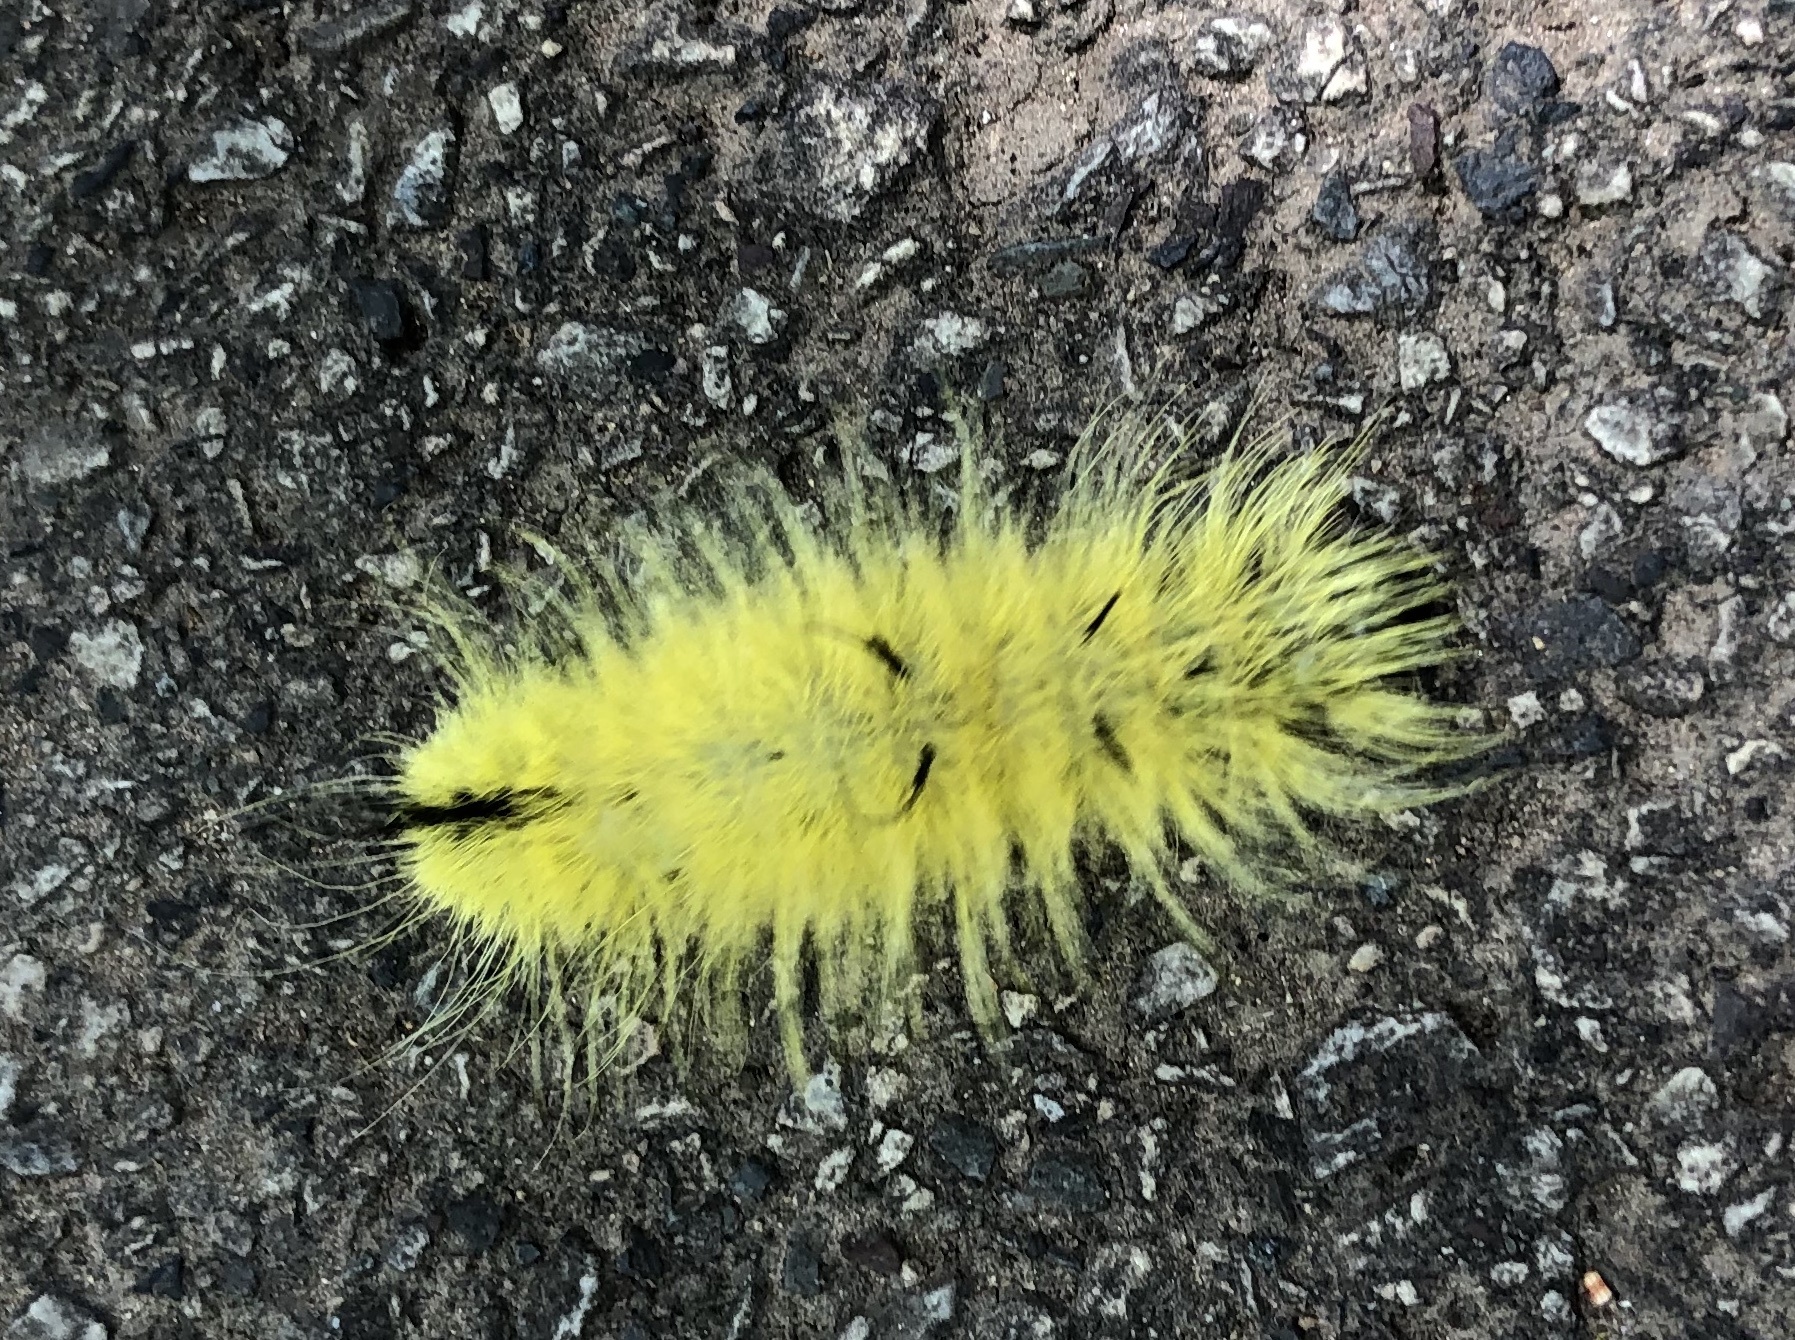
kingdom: Animalia
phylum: Arthropoda
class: Insecta
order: Lepidoptera
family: Noctuidae
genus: Acronicta
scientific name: Acronicta americana
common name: American dagger
